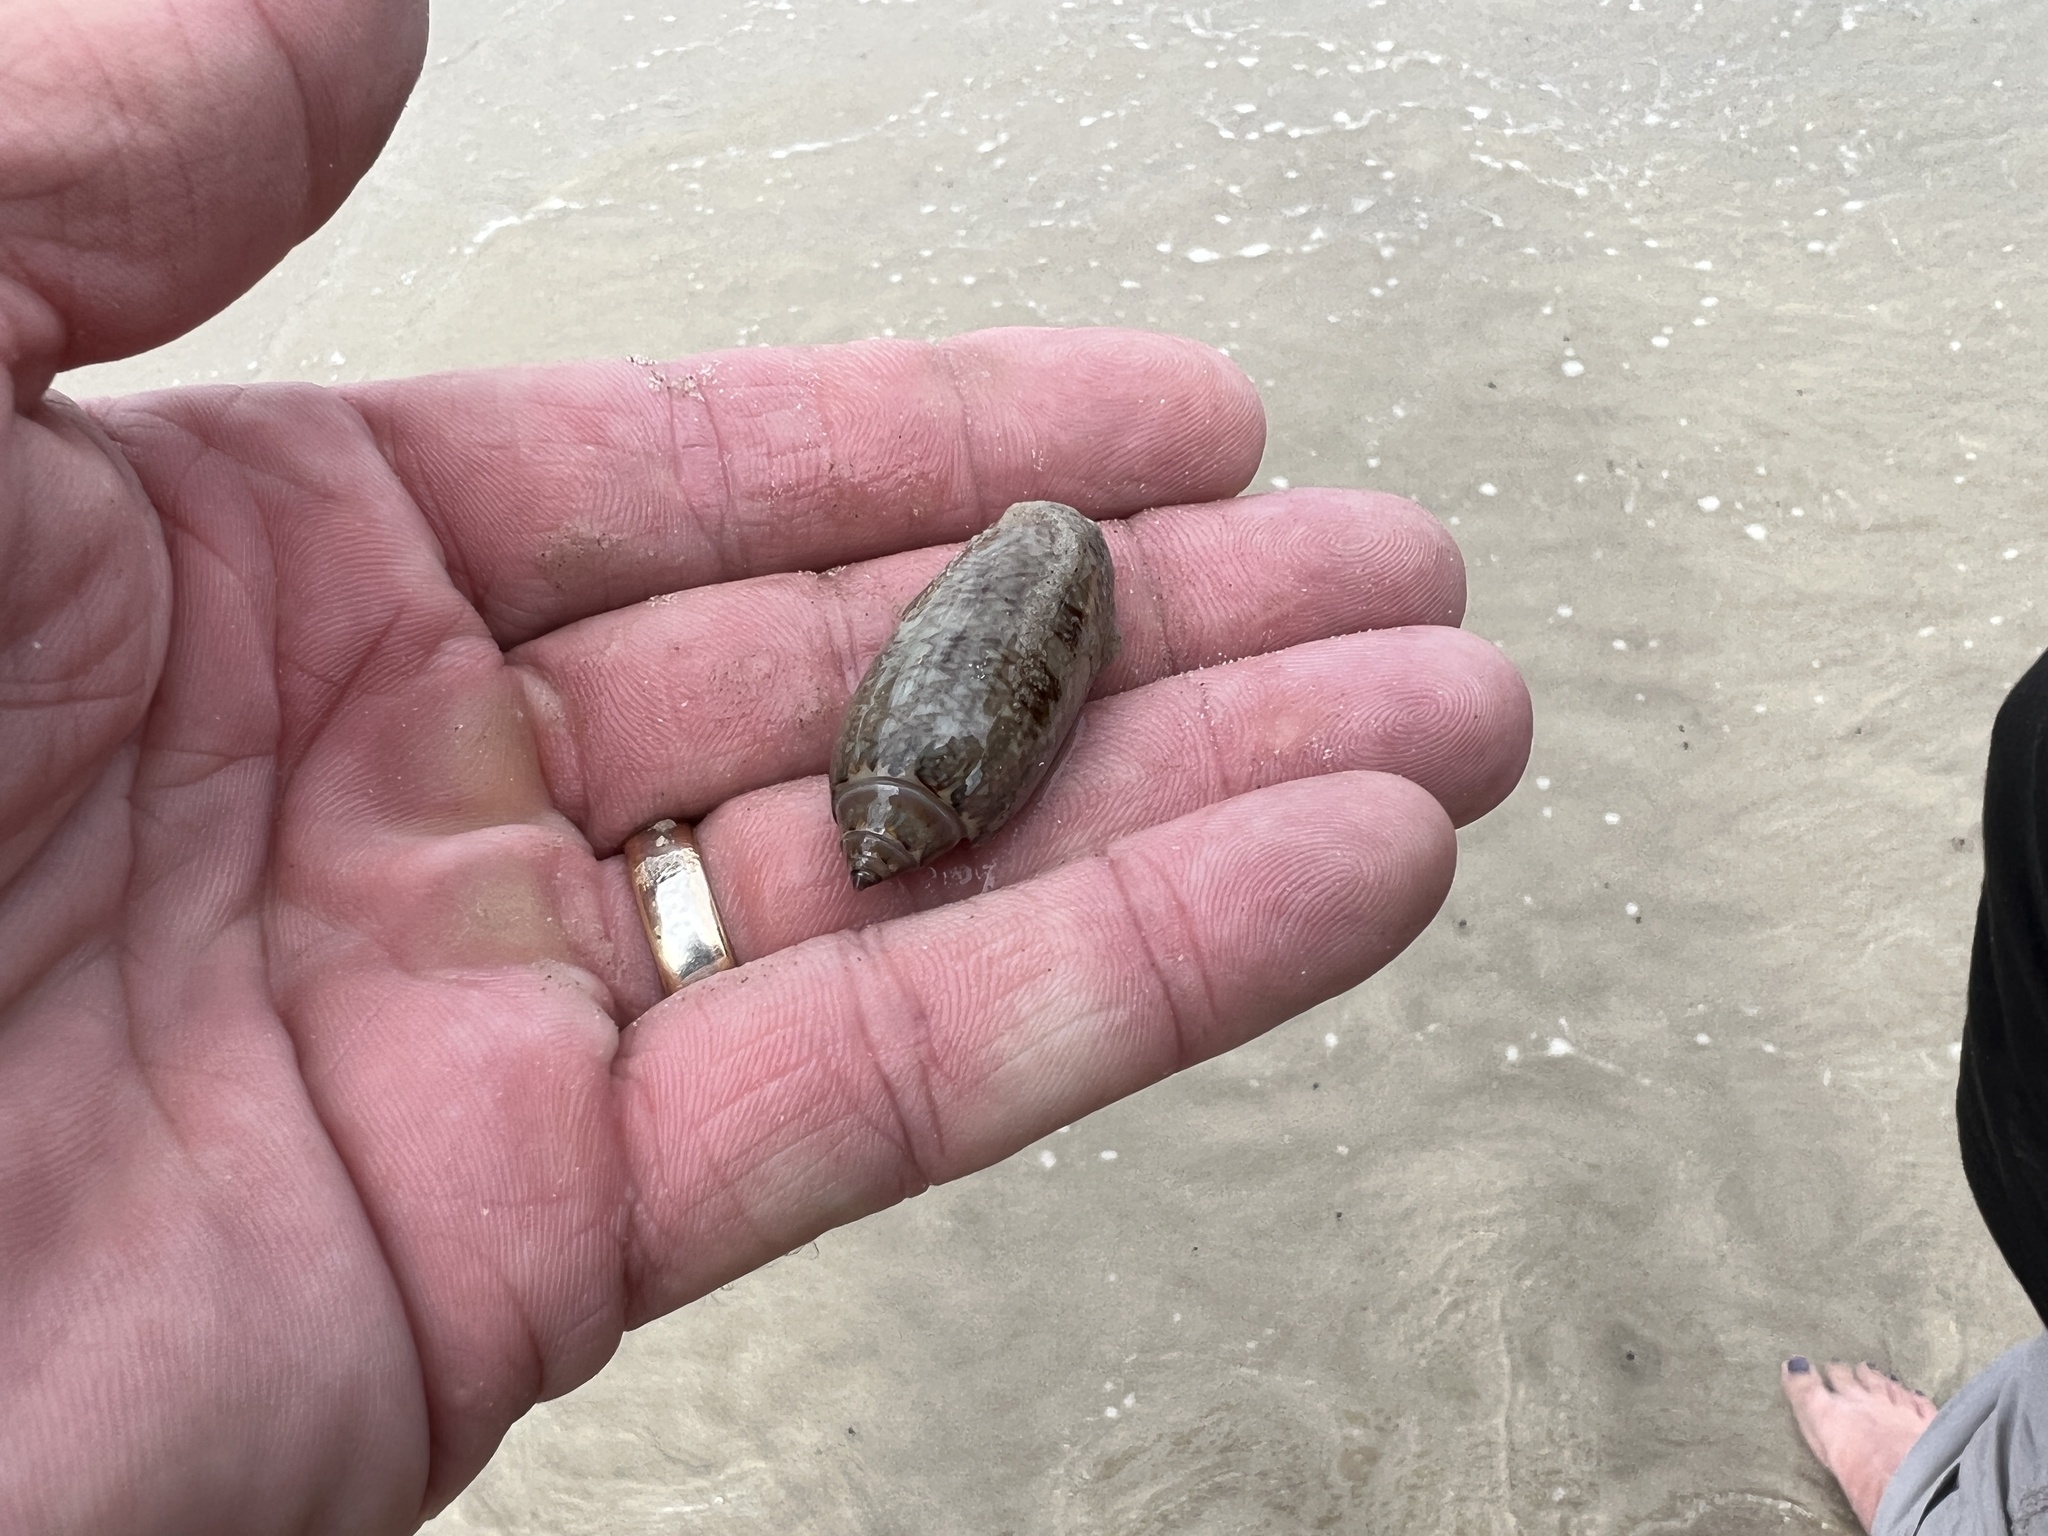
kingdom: Animalia
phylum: Mollusca
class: Gastropoda
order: Neogastropoda
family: Olividae
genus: Oliva
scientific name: Oliva sayana
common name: Lettered olive
